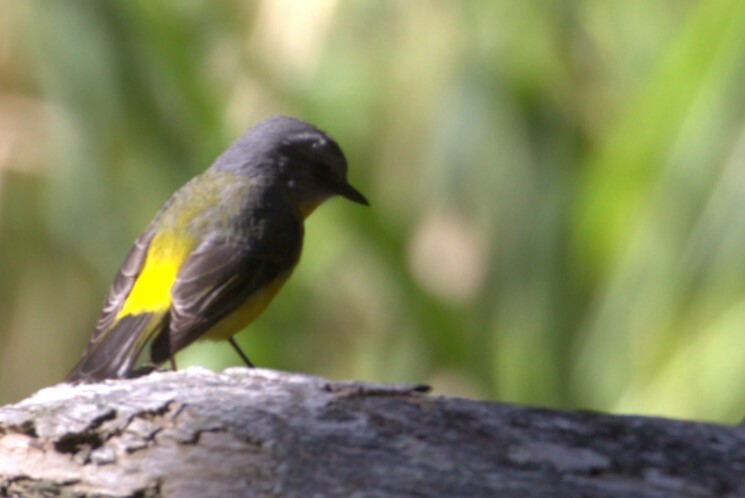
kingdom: Animalia
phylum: Chordata
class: Aves
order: Passeriformes
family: Petroicidae
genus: Eopsaltria
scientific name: Eopsaltria australis
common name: Eastern yellow robin
